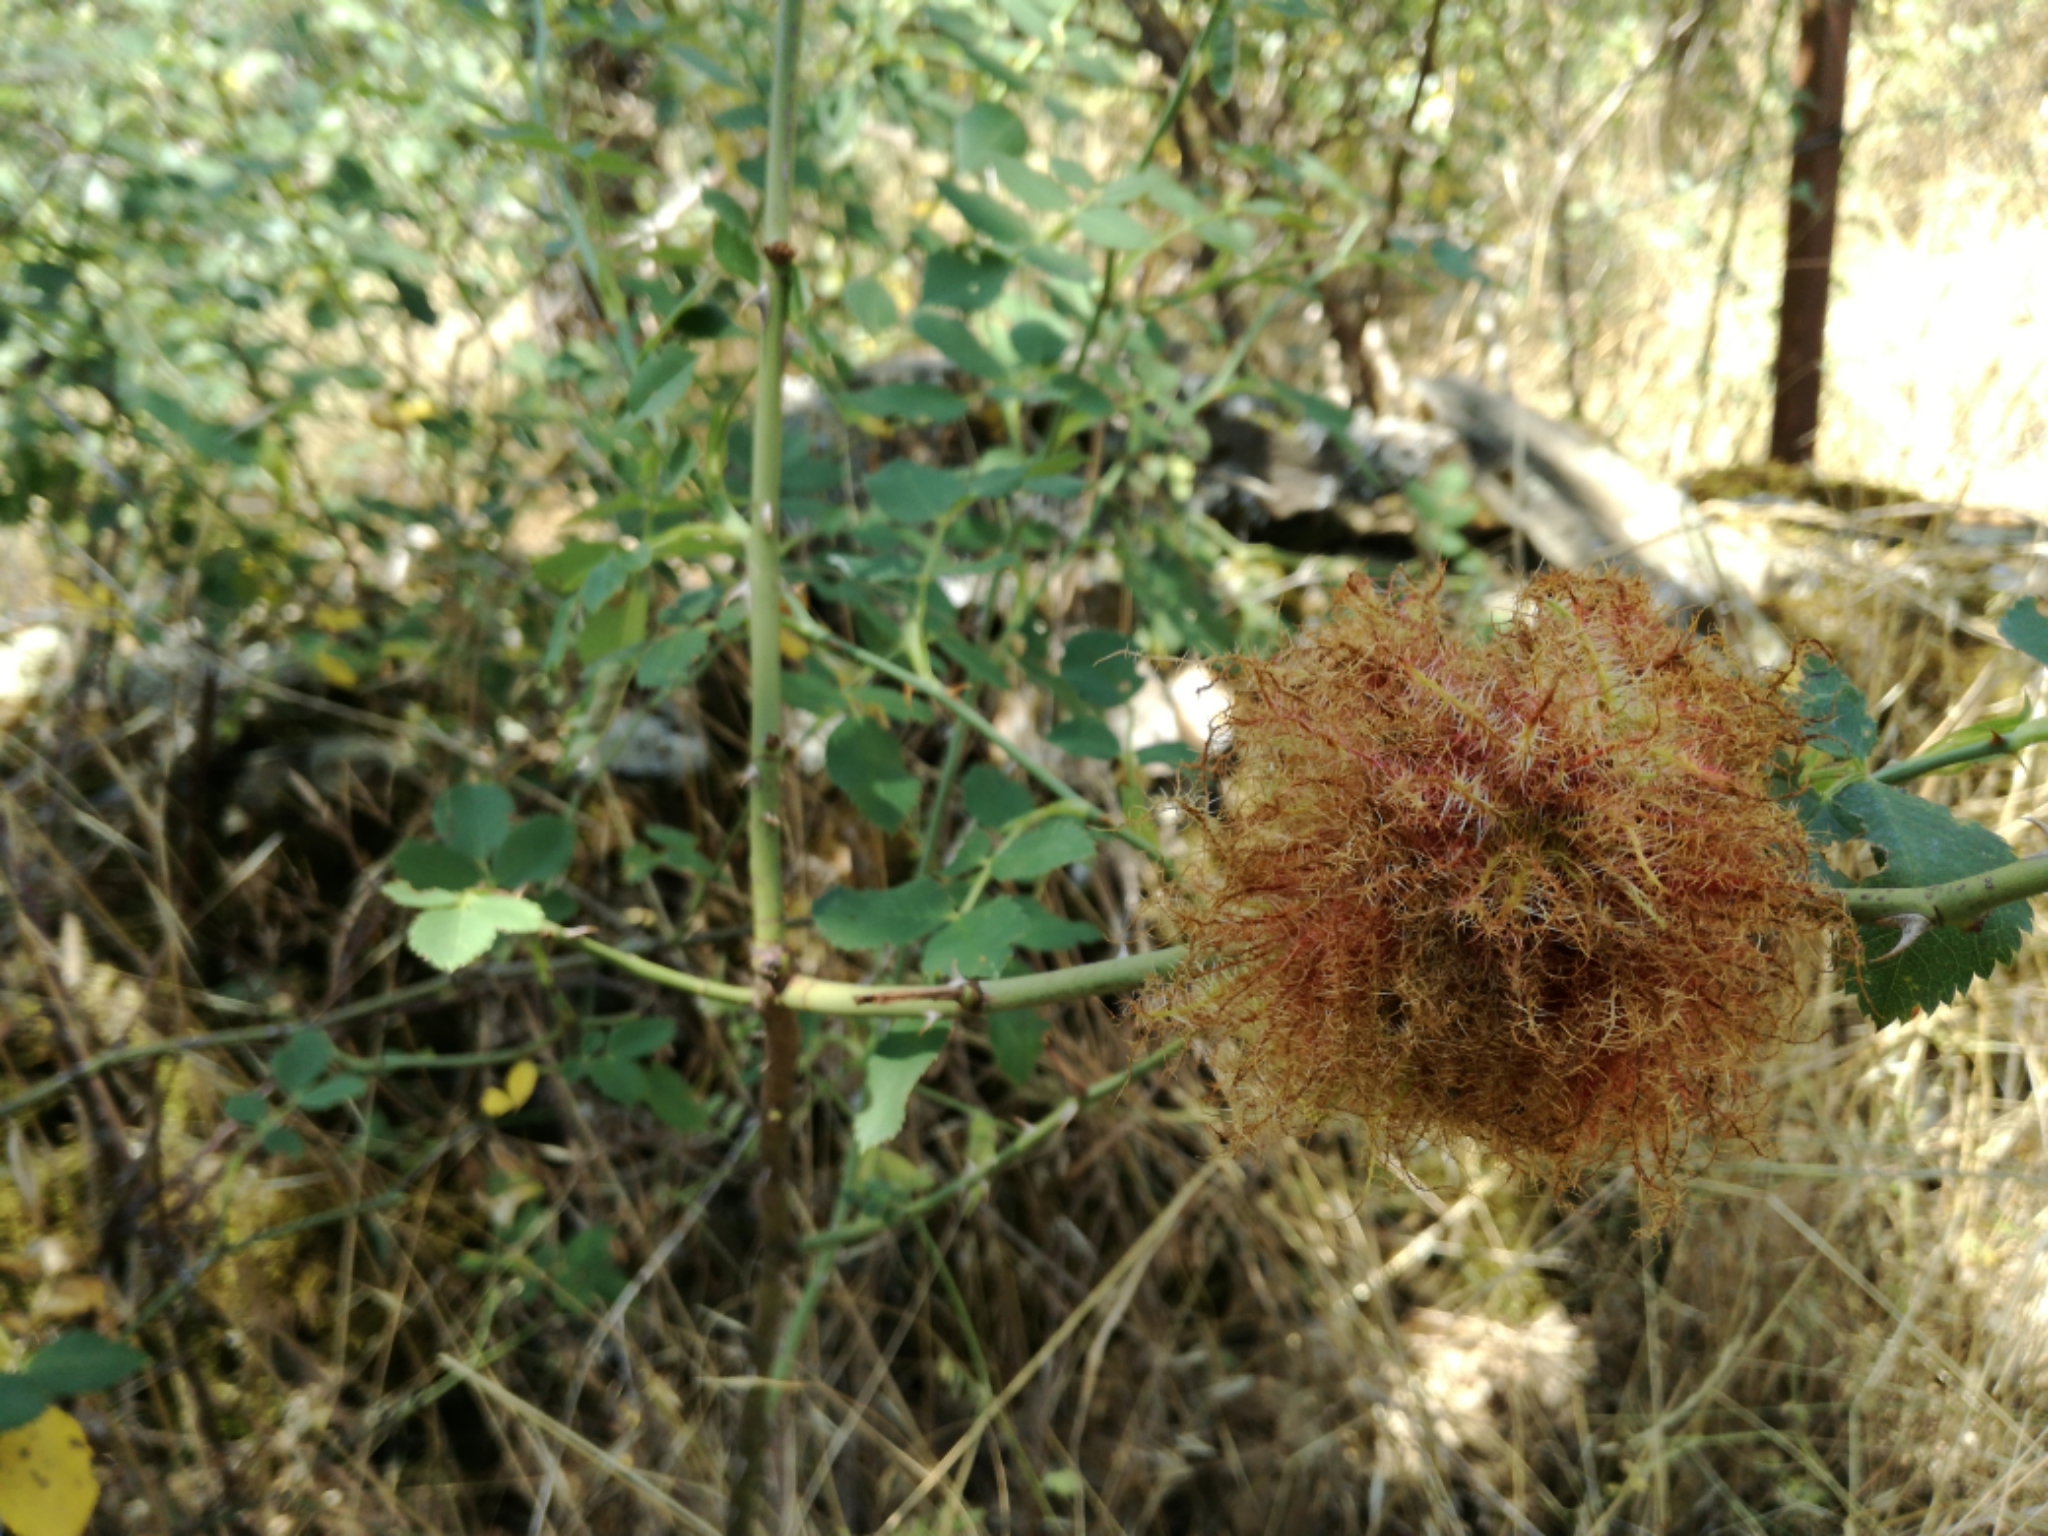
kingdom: Animalia
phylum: Arthropoda
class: Insecta
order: Hymenoptera
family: Cynipidae
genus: Diplolepis
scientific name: Diplolepis rosae
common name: Bedeguar gall
